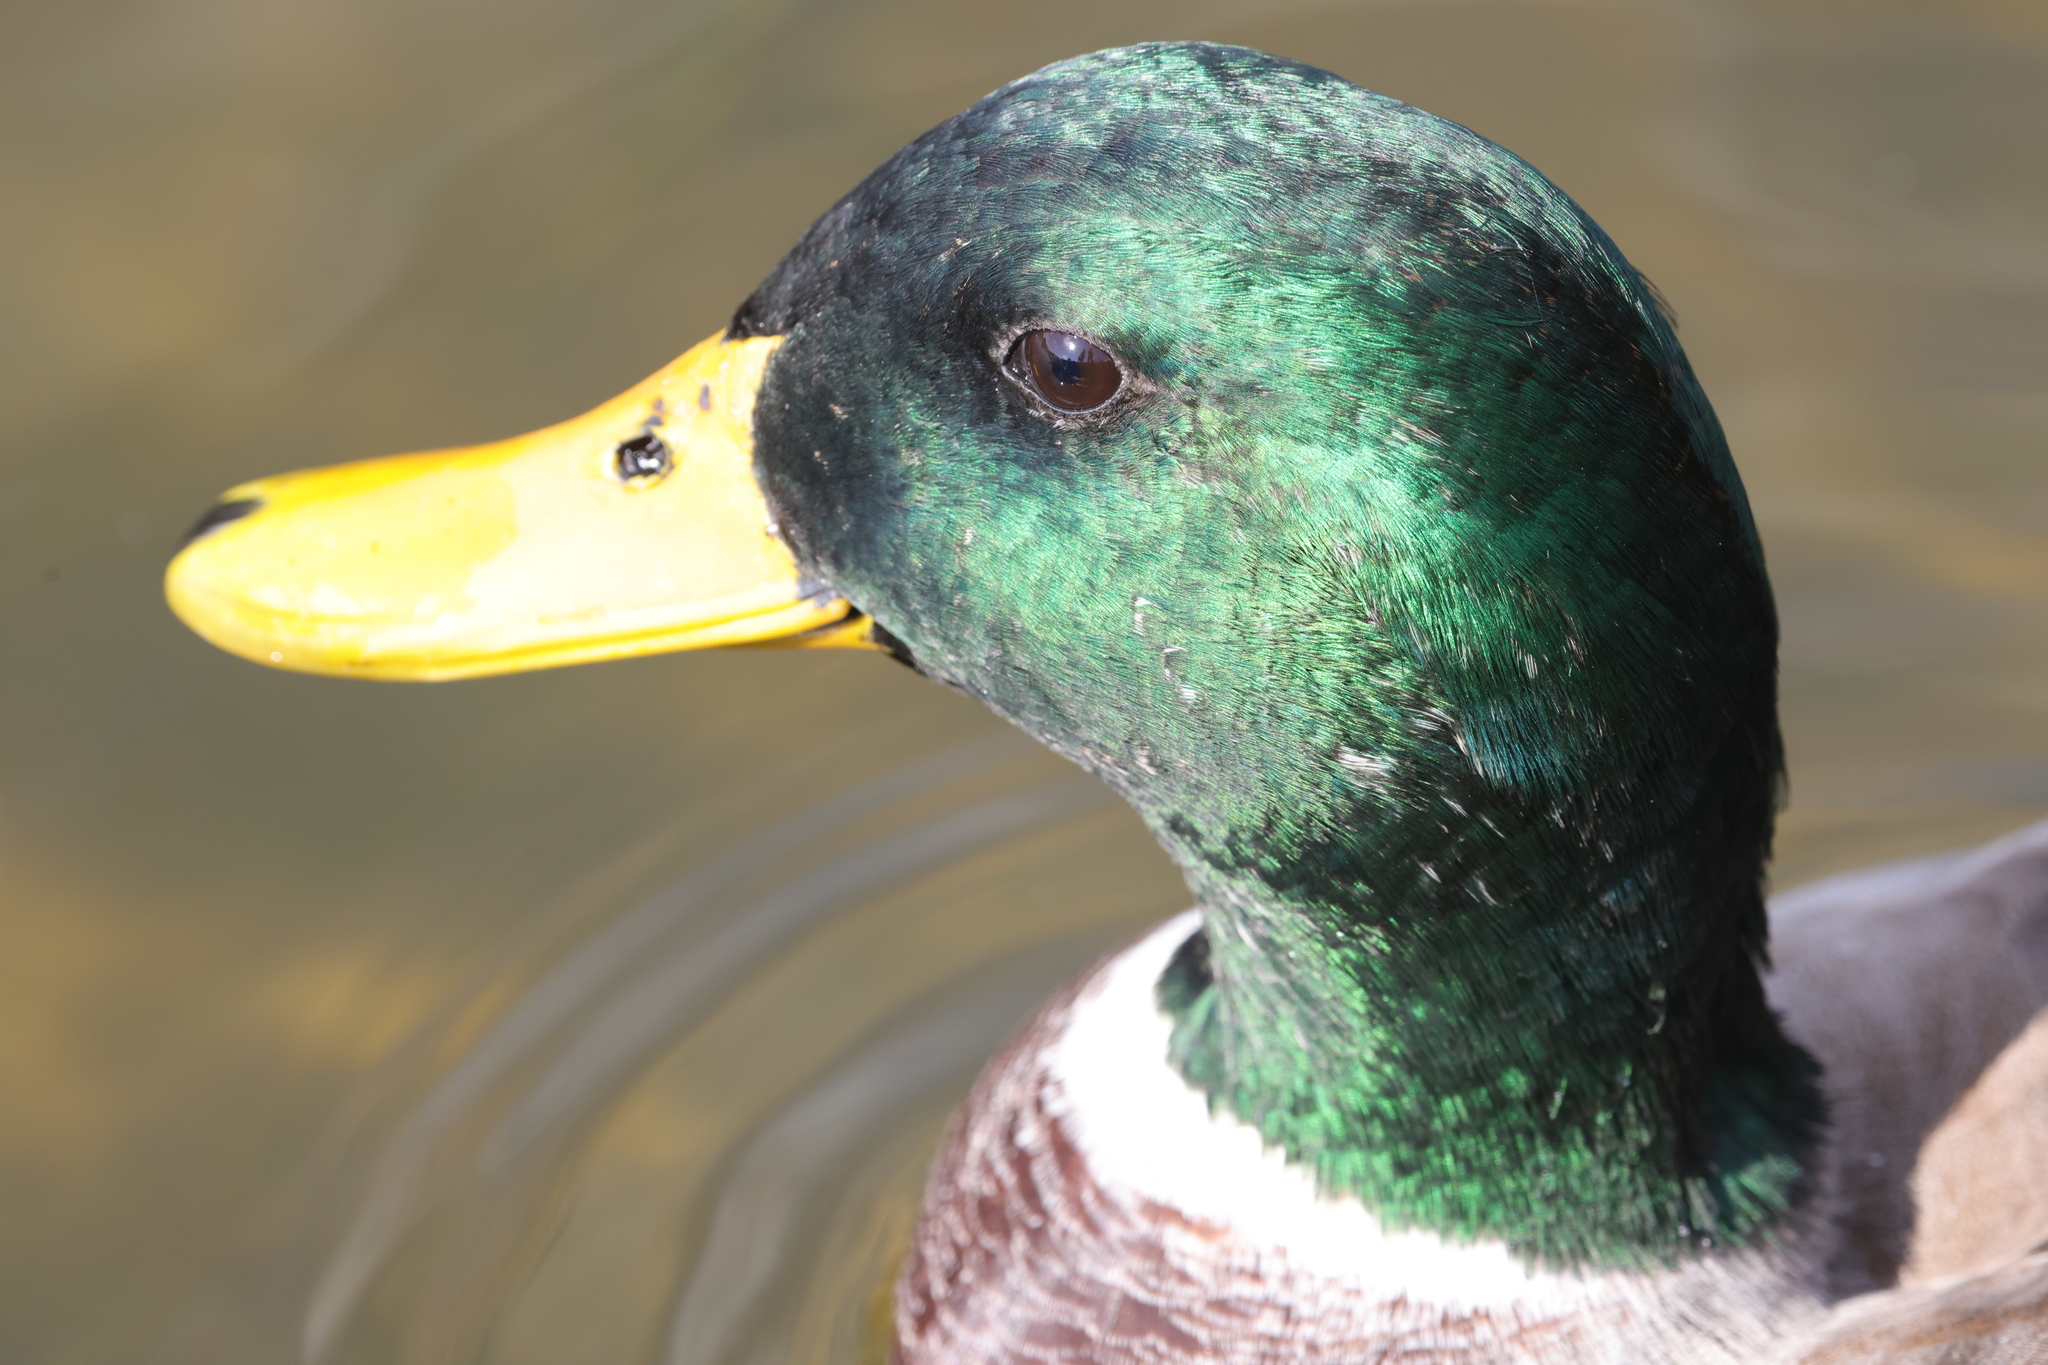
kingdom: Animalia
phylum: Chordata
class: Aves
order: Anseriformes
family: Anatidae
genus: Anas
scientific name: Anas platyrhynchos
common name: Mallard
